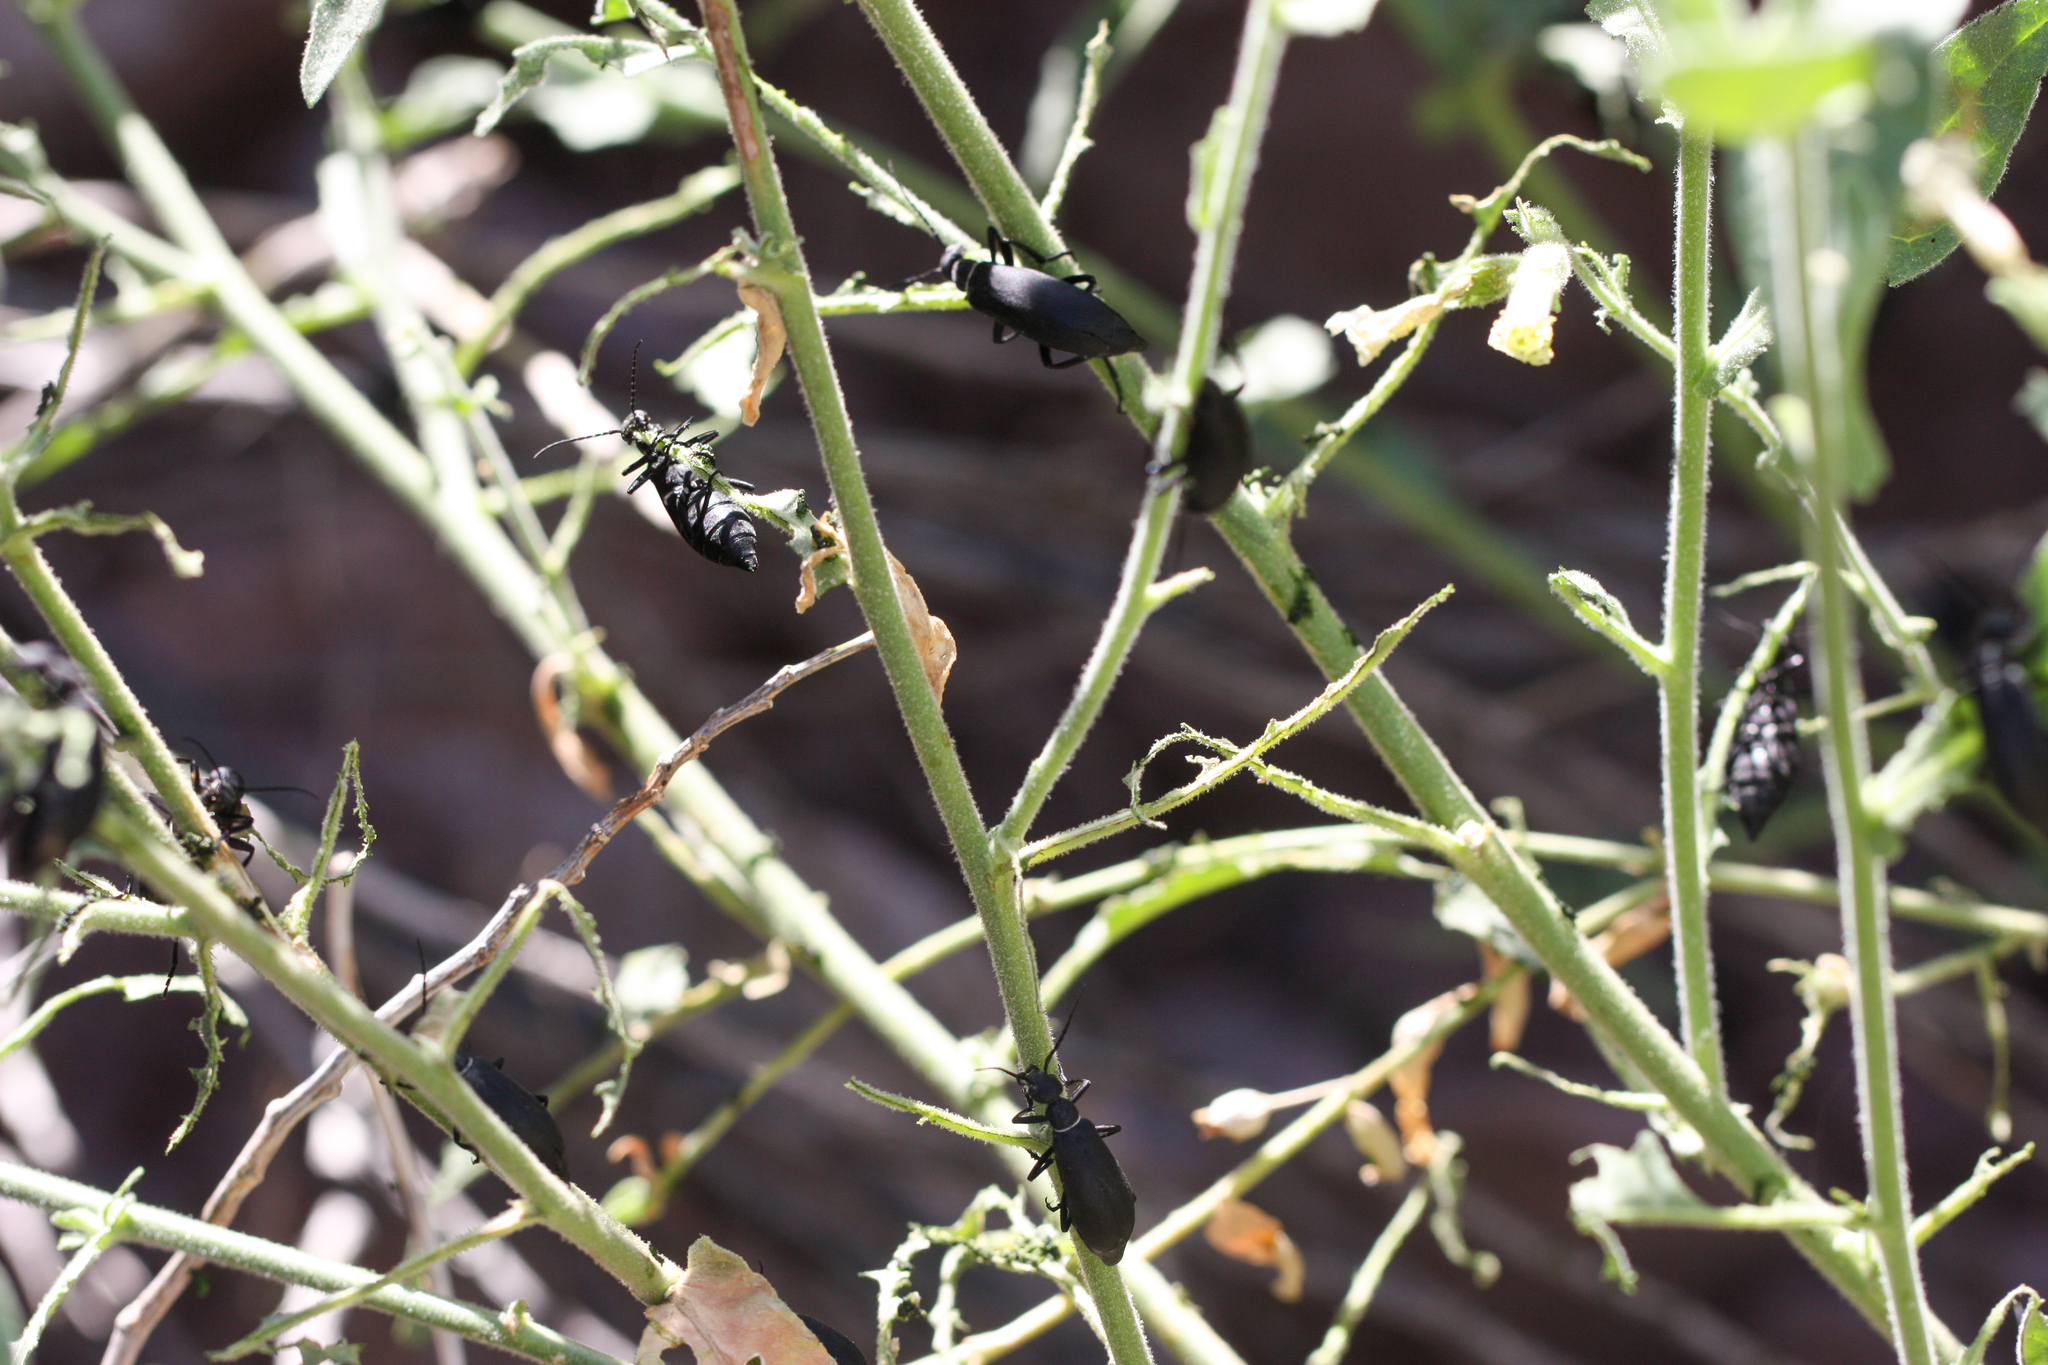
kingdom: Animalia
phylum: Arthropoda
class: Insecta
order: Coleoptera
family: Meloidae
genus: Epicauta
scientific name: Epicauta segmenta
